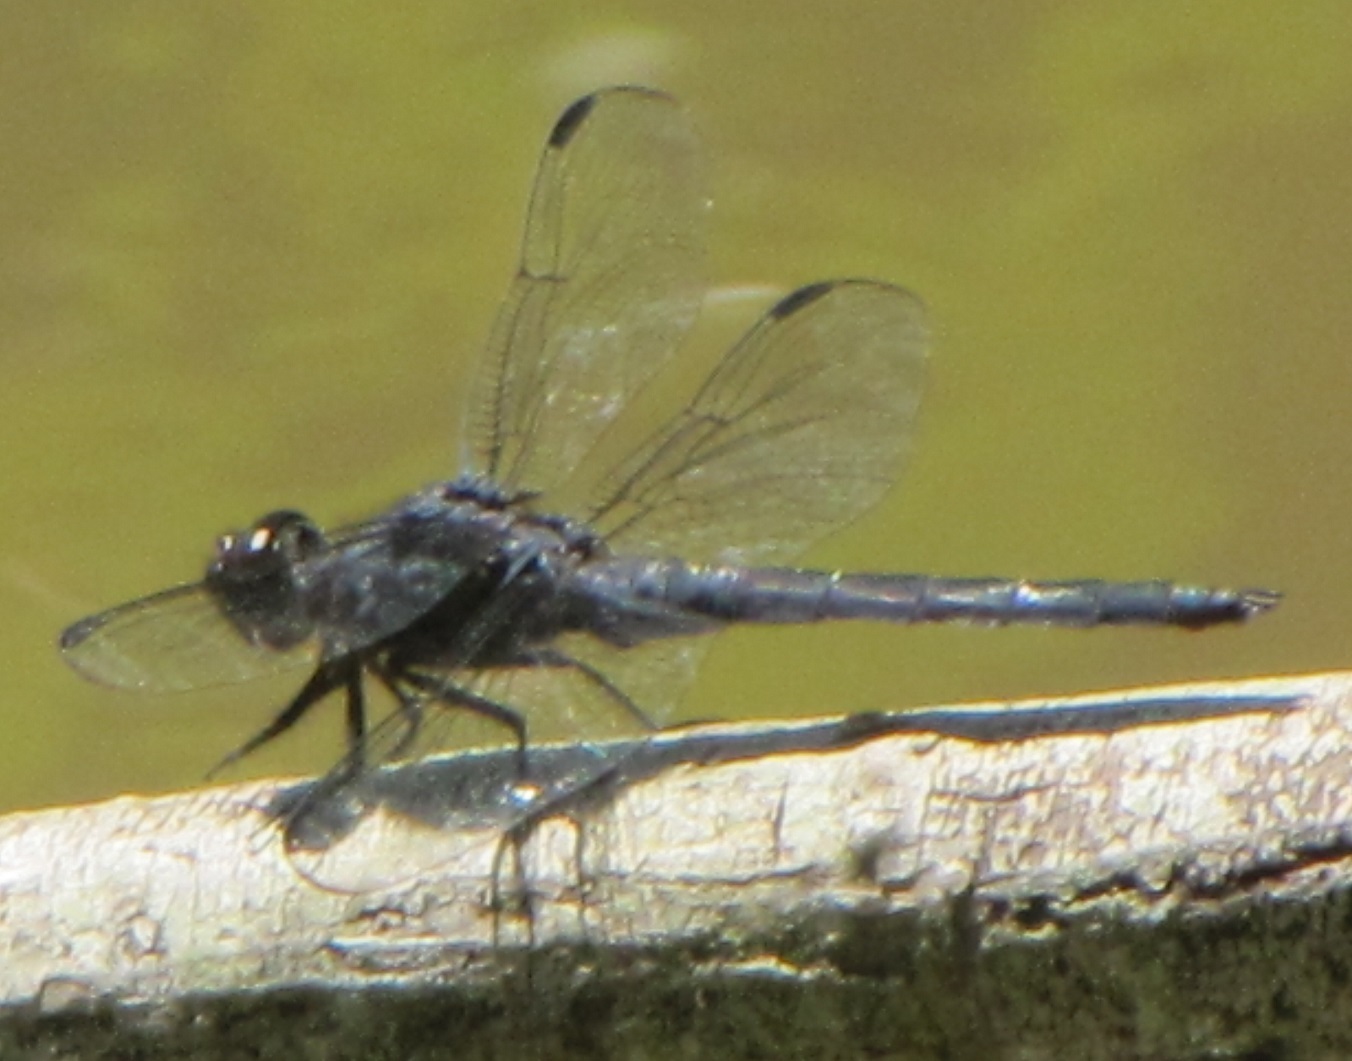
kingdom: Animalia
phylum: Arthropoda
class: Insecta
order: Odonata
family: Libellulidae
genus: Libellula
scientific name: Libellula incesta
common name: Slaty skimmer
